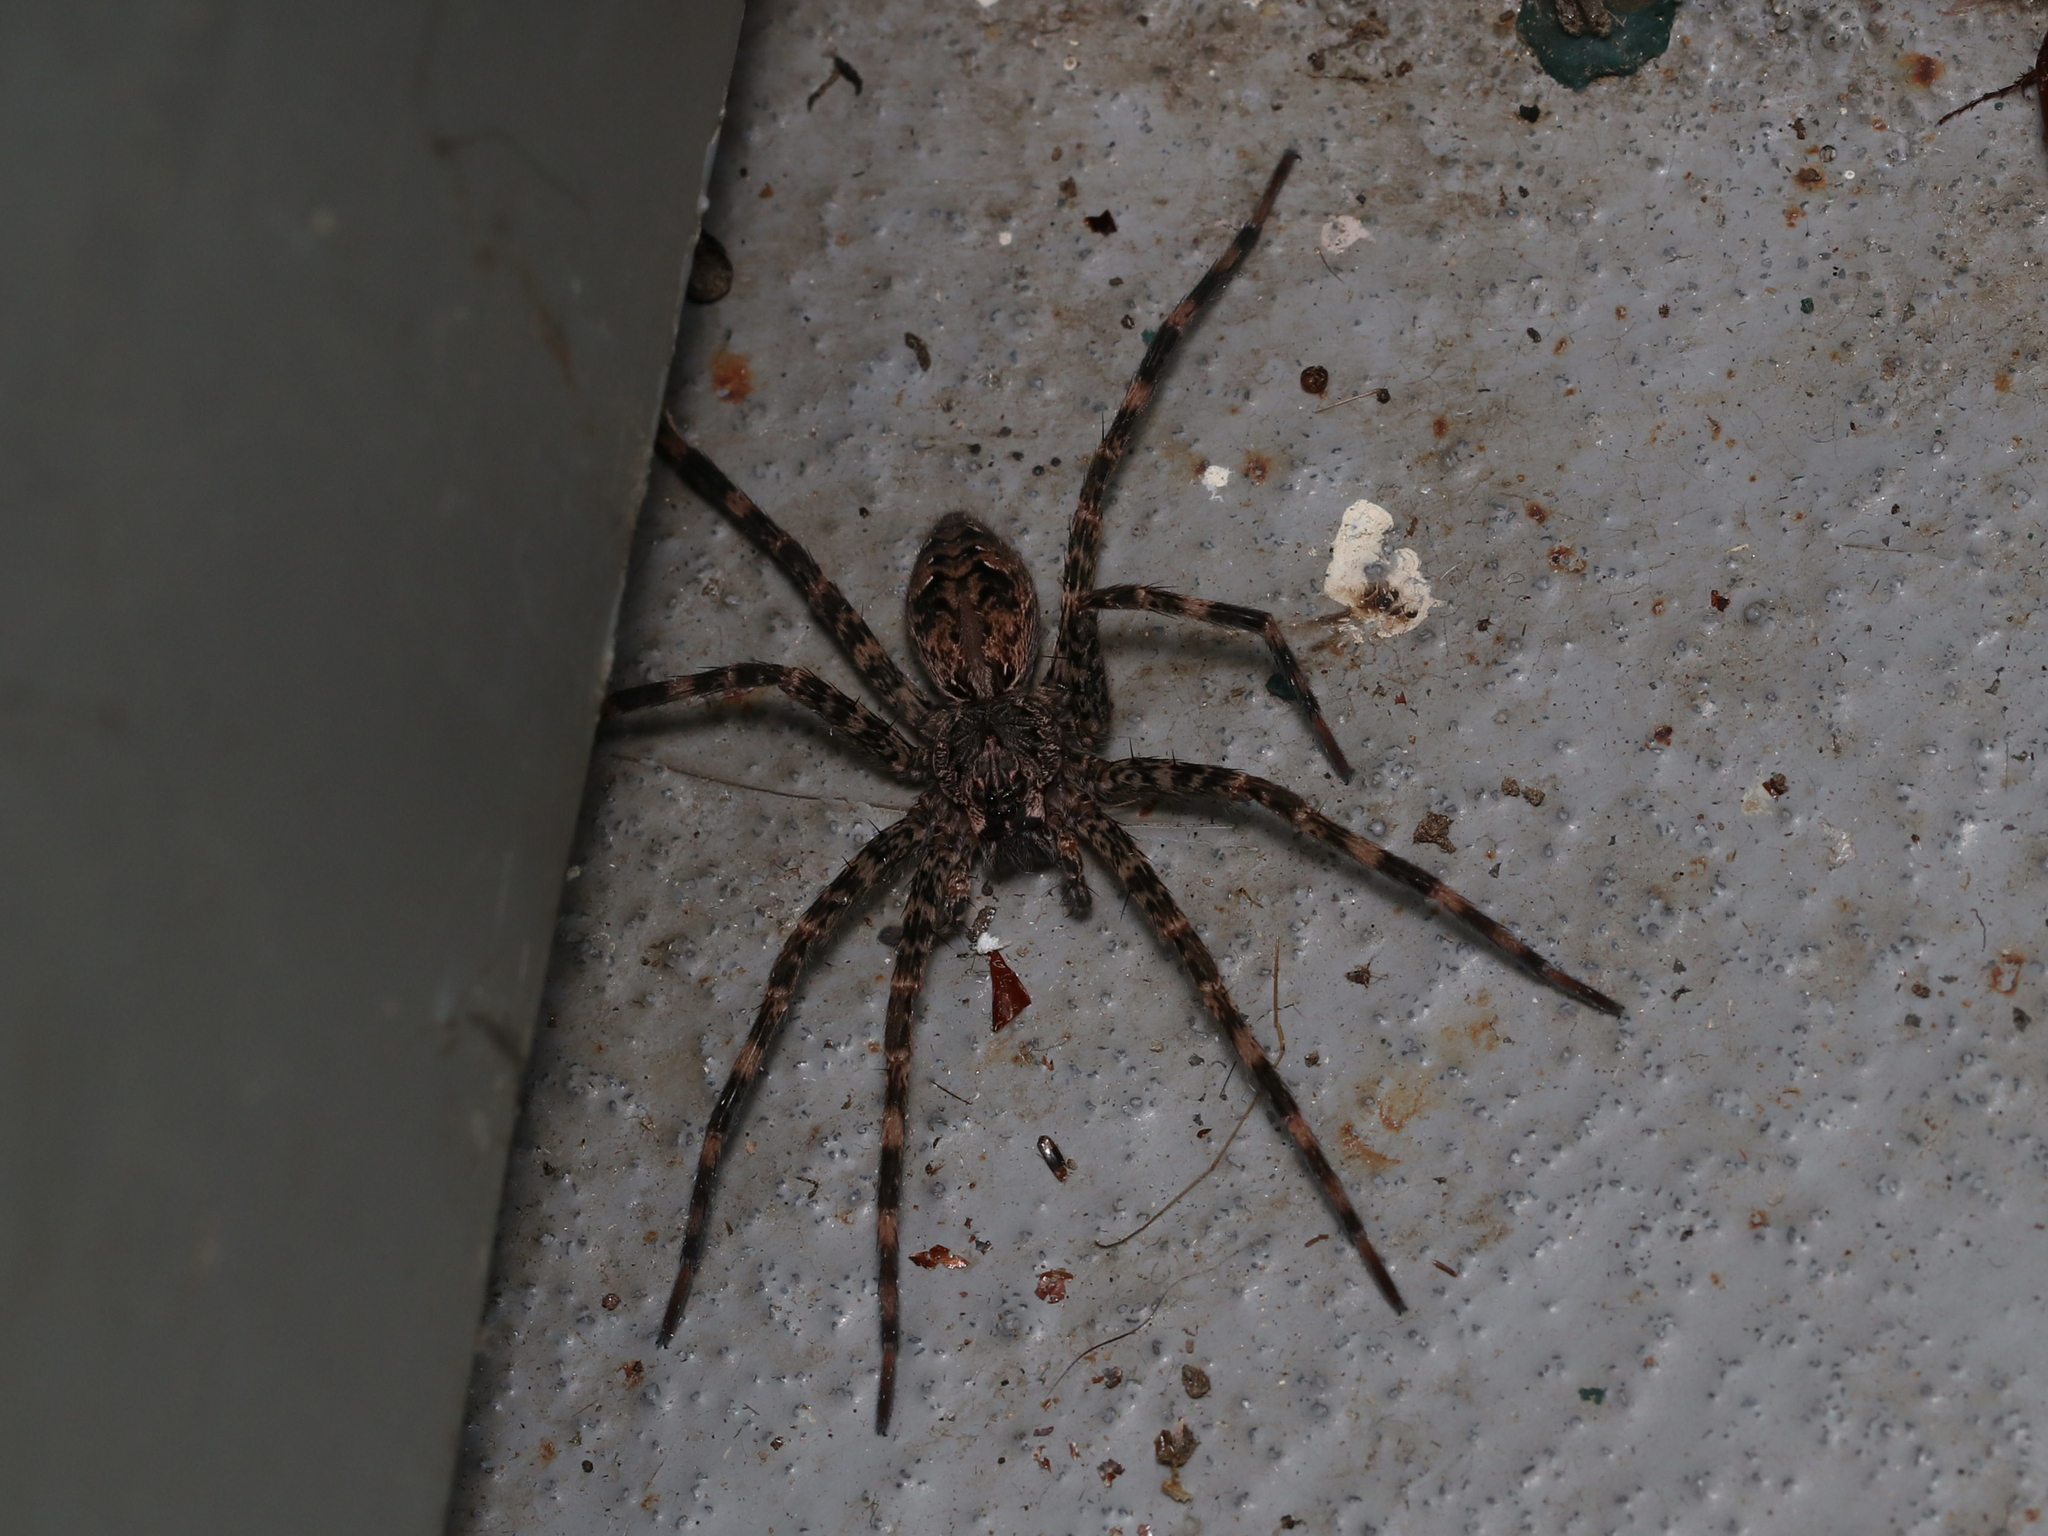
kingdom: Animalia
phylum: Arthropoda
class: Arachnida
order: Araneae
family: Pisauridae
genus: Dolomedes
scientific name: Dolomedes tenebrosus
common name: Dark fishing spider
